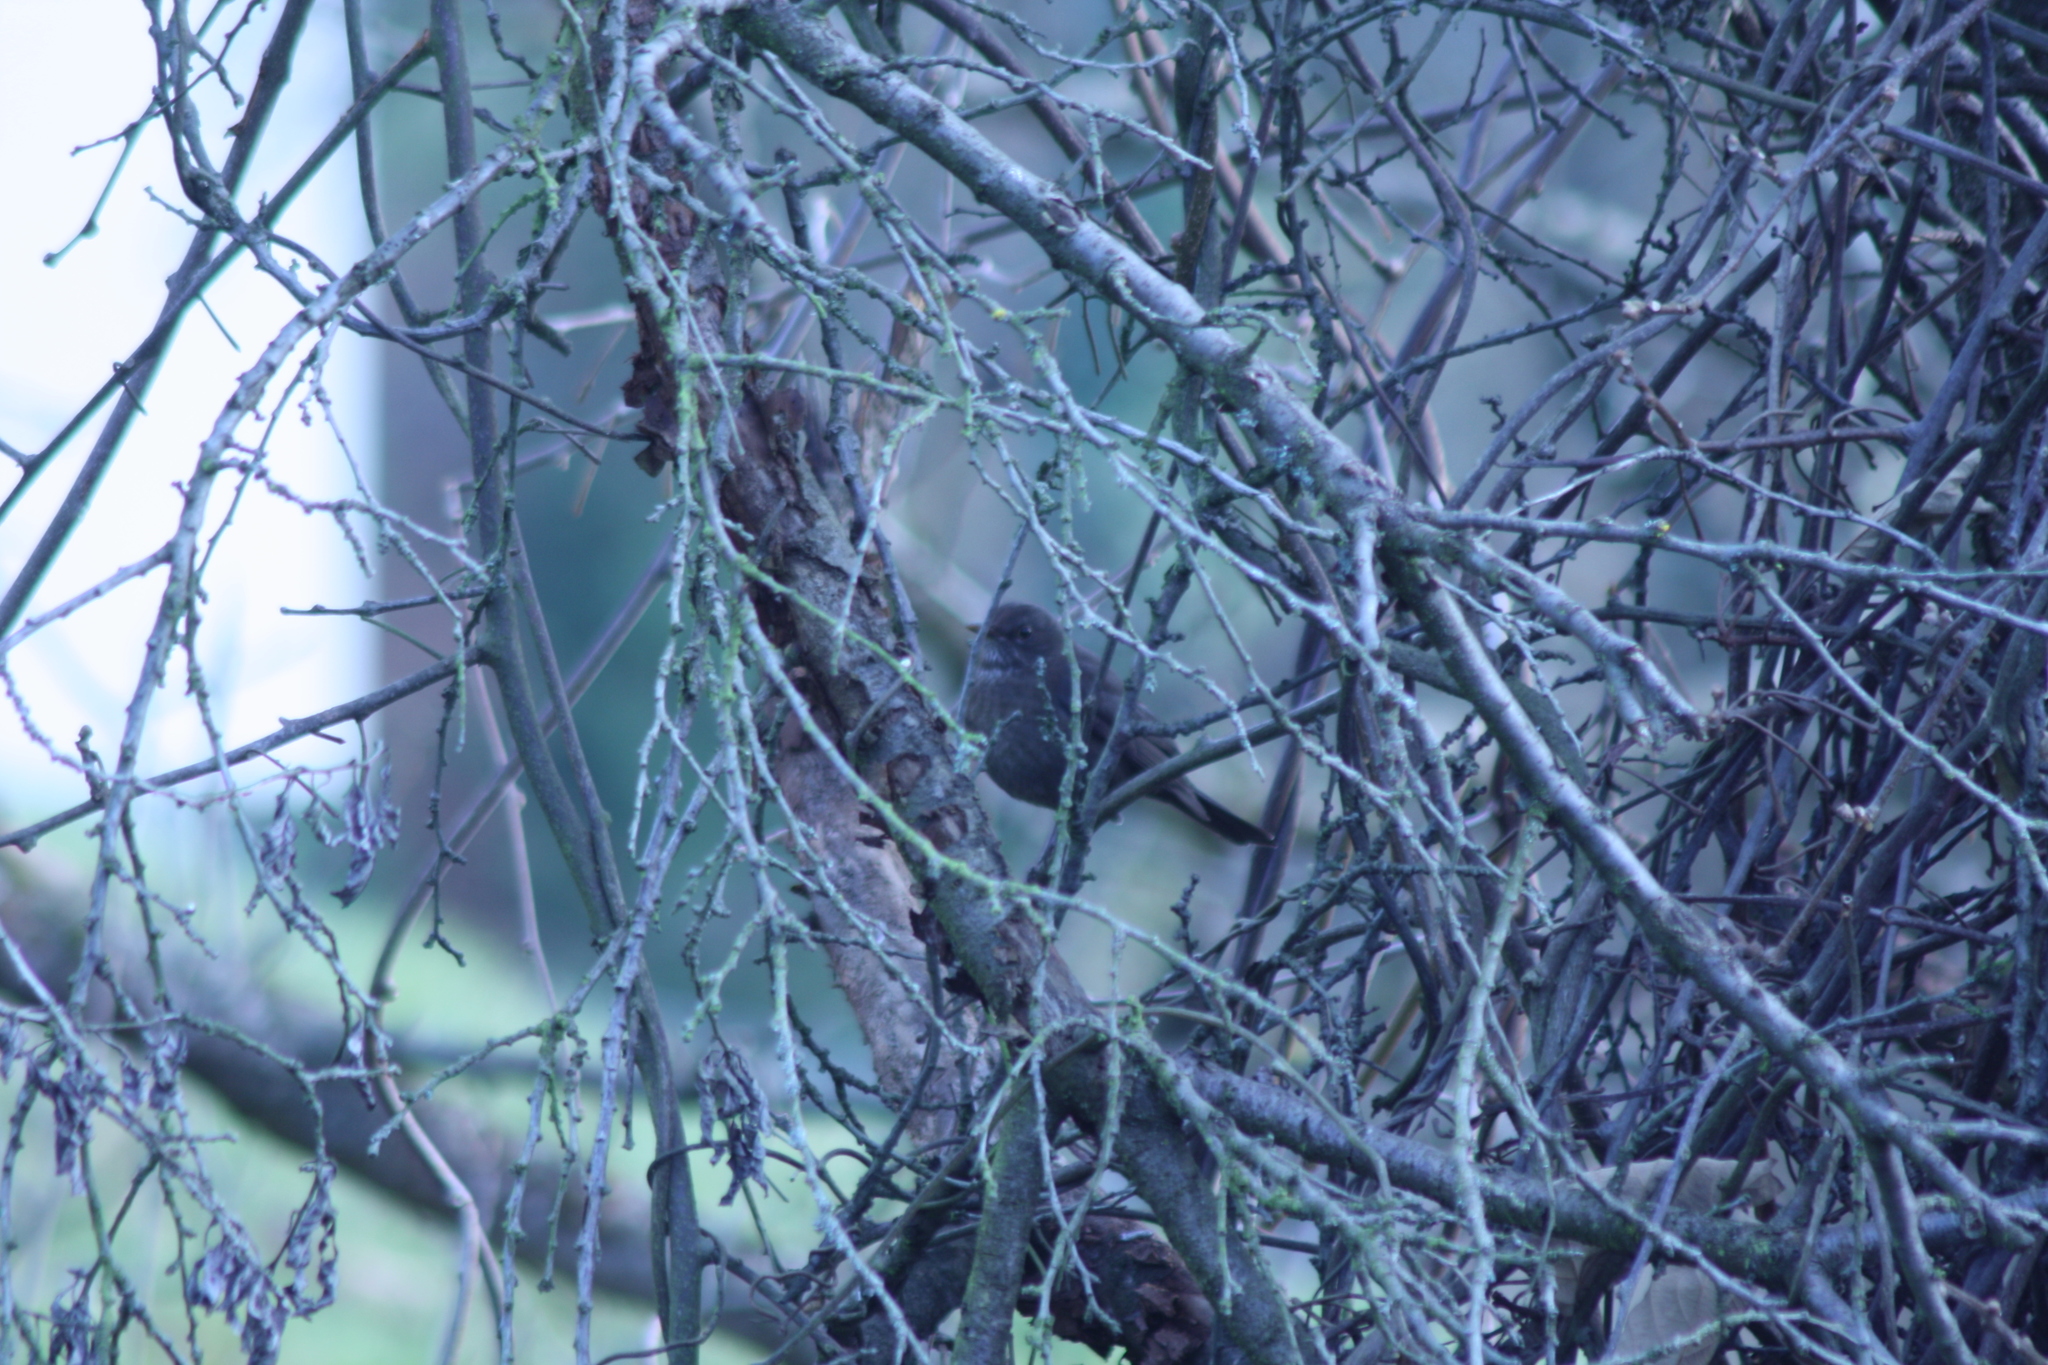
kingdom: Animalia
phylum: Chordata
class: Aves
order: Passeriformes
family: Turdidae
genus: Turdus
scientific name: Turdus merula
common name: Common blackbird
